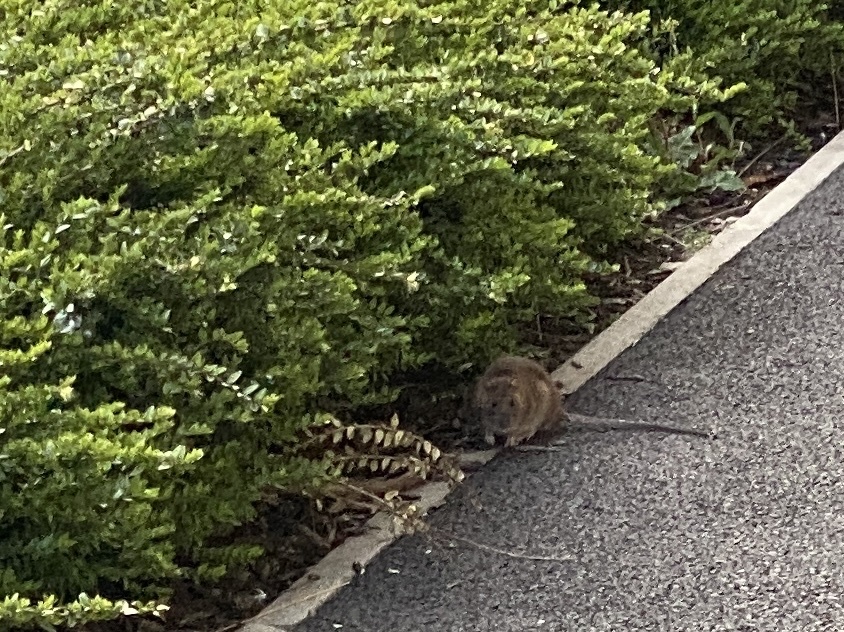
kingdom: Animalia
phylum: Chordata
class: Mammalia
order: Rodentia
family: Muridae
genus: Rattus
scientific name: Rattus norvegicus
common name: Brown rat
